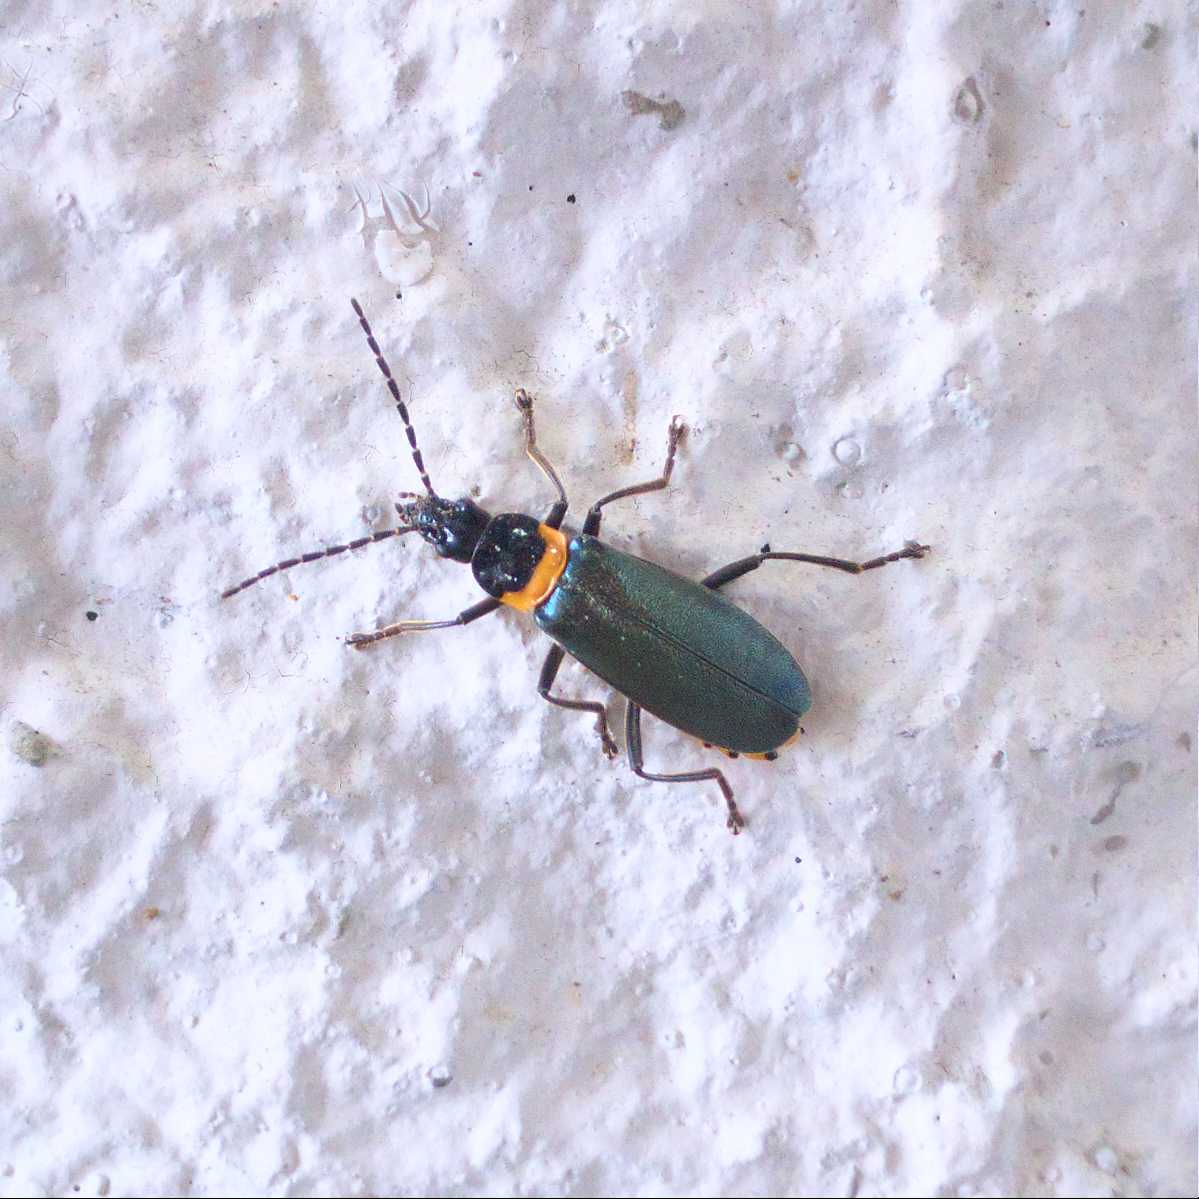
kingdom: Animalia
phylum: Arthropoda
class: Insecta
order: Coleoptera
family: Cantharidae
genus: Chauliognathus
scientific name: Chauliognathus
